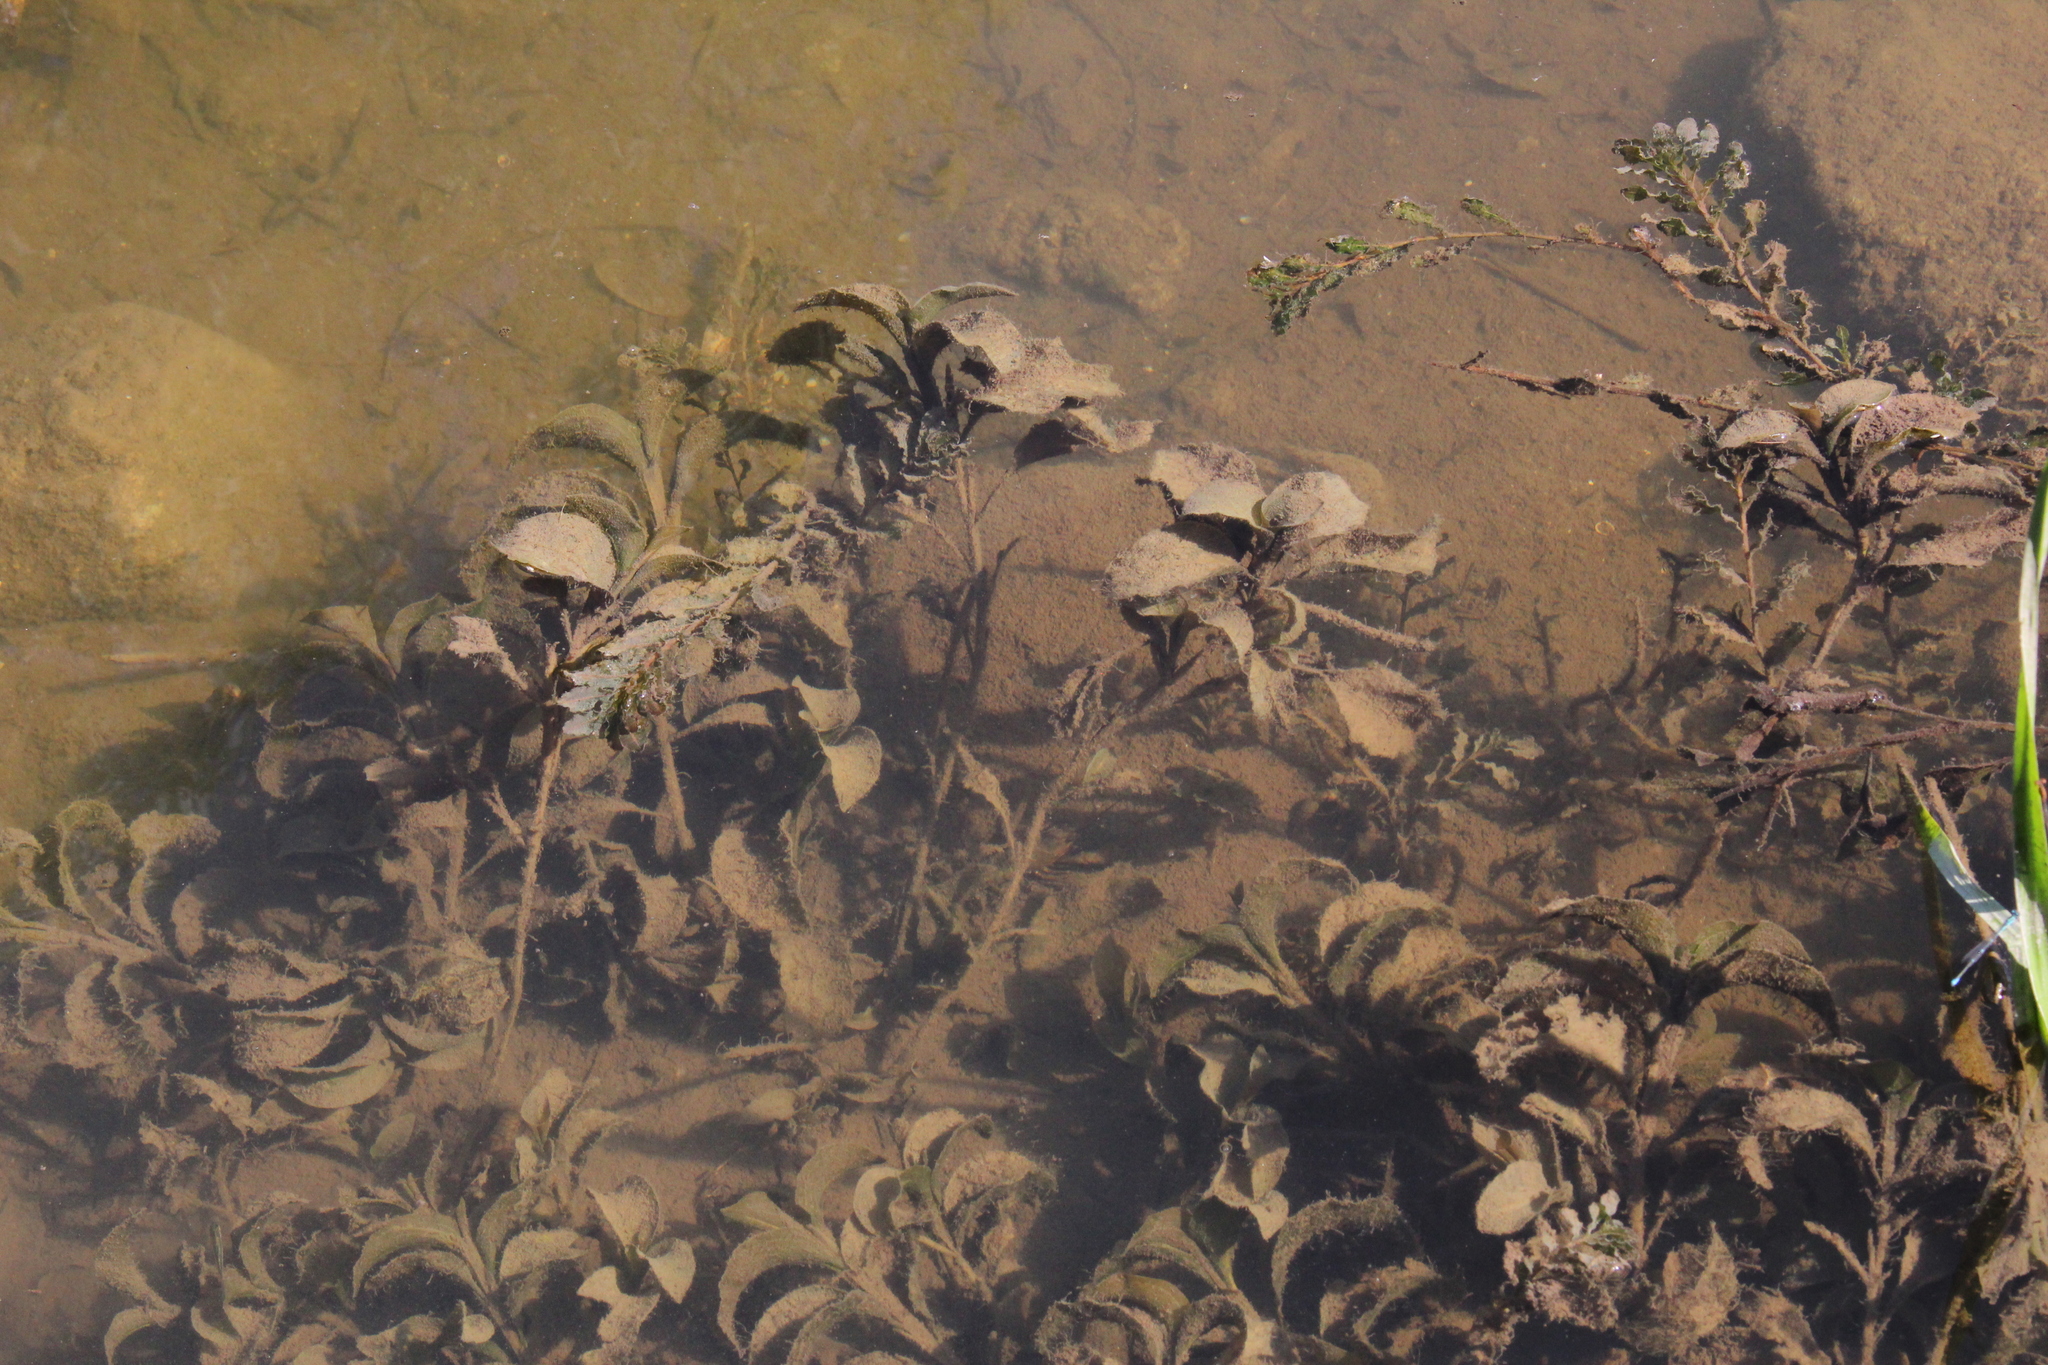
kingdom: Plantae
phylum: Tracheophyta
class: Liliopsida
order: Alismatales
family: Potamogetonaceae
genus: Potamogeton
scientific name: Potamogeton amplifolius
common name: Broad-leaved pondweed
